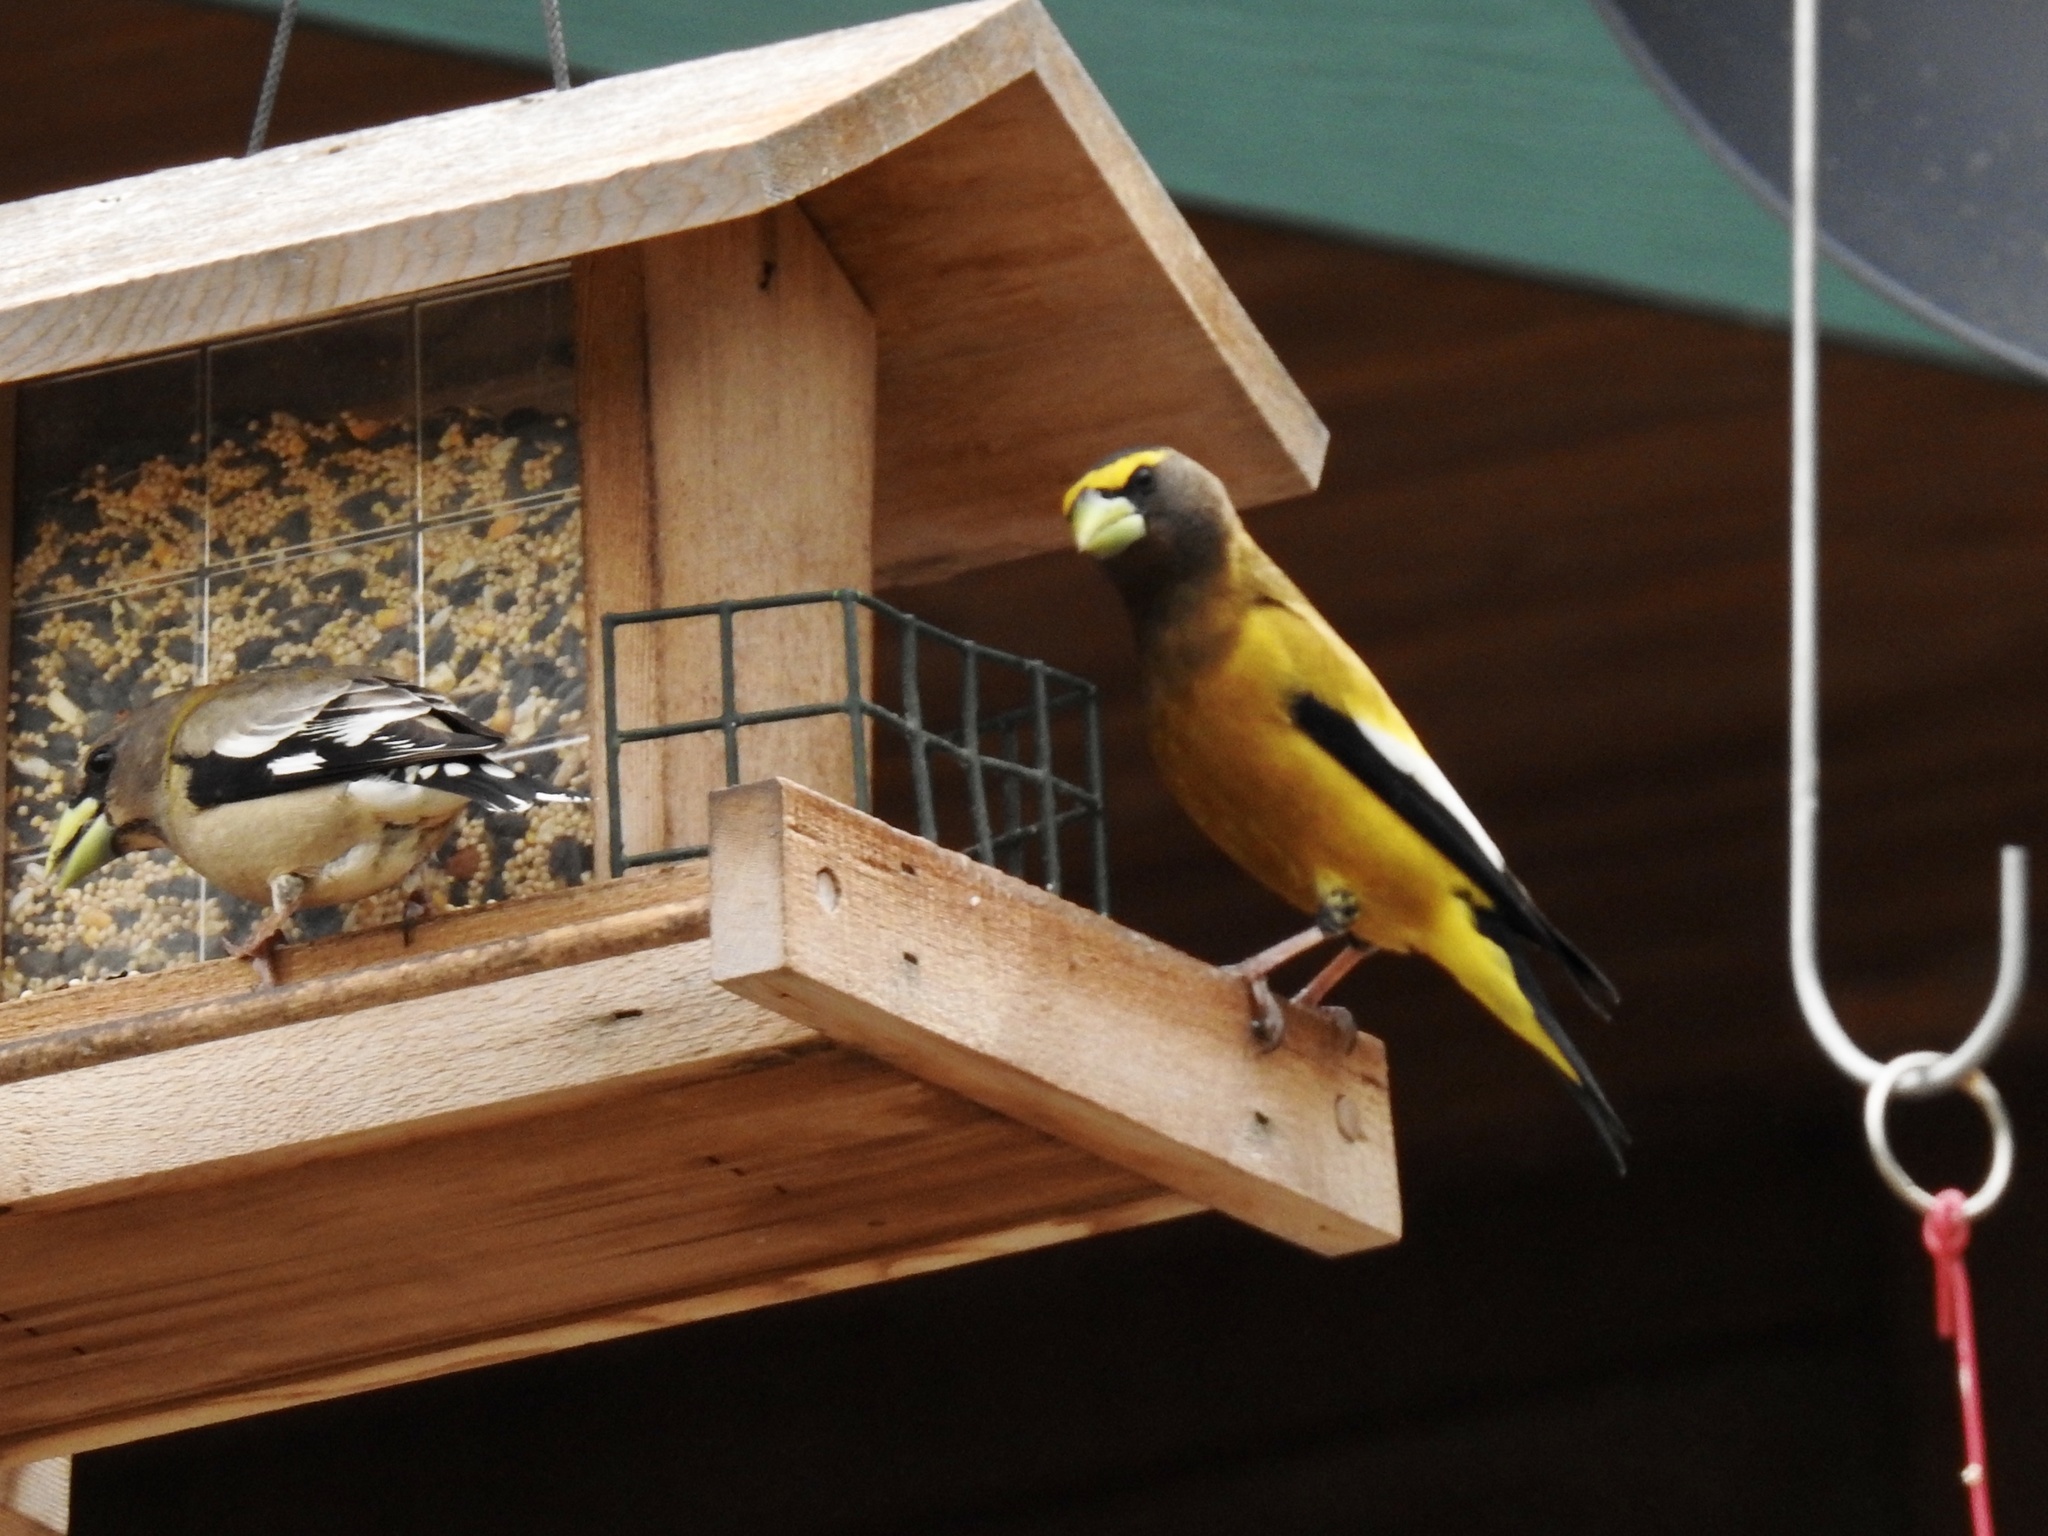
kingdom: Animalia
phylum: Chordata
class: Aves
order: Passeriformes
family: Fringillidae
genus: Hesperiphona
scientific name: Hesperiphona vespertina
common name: Evening grosbeak
